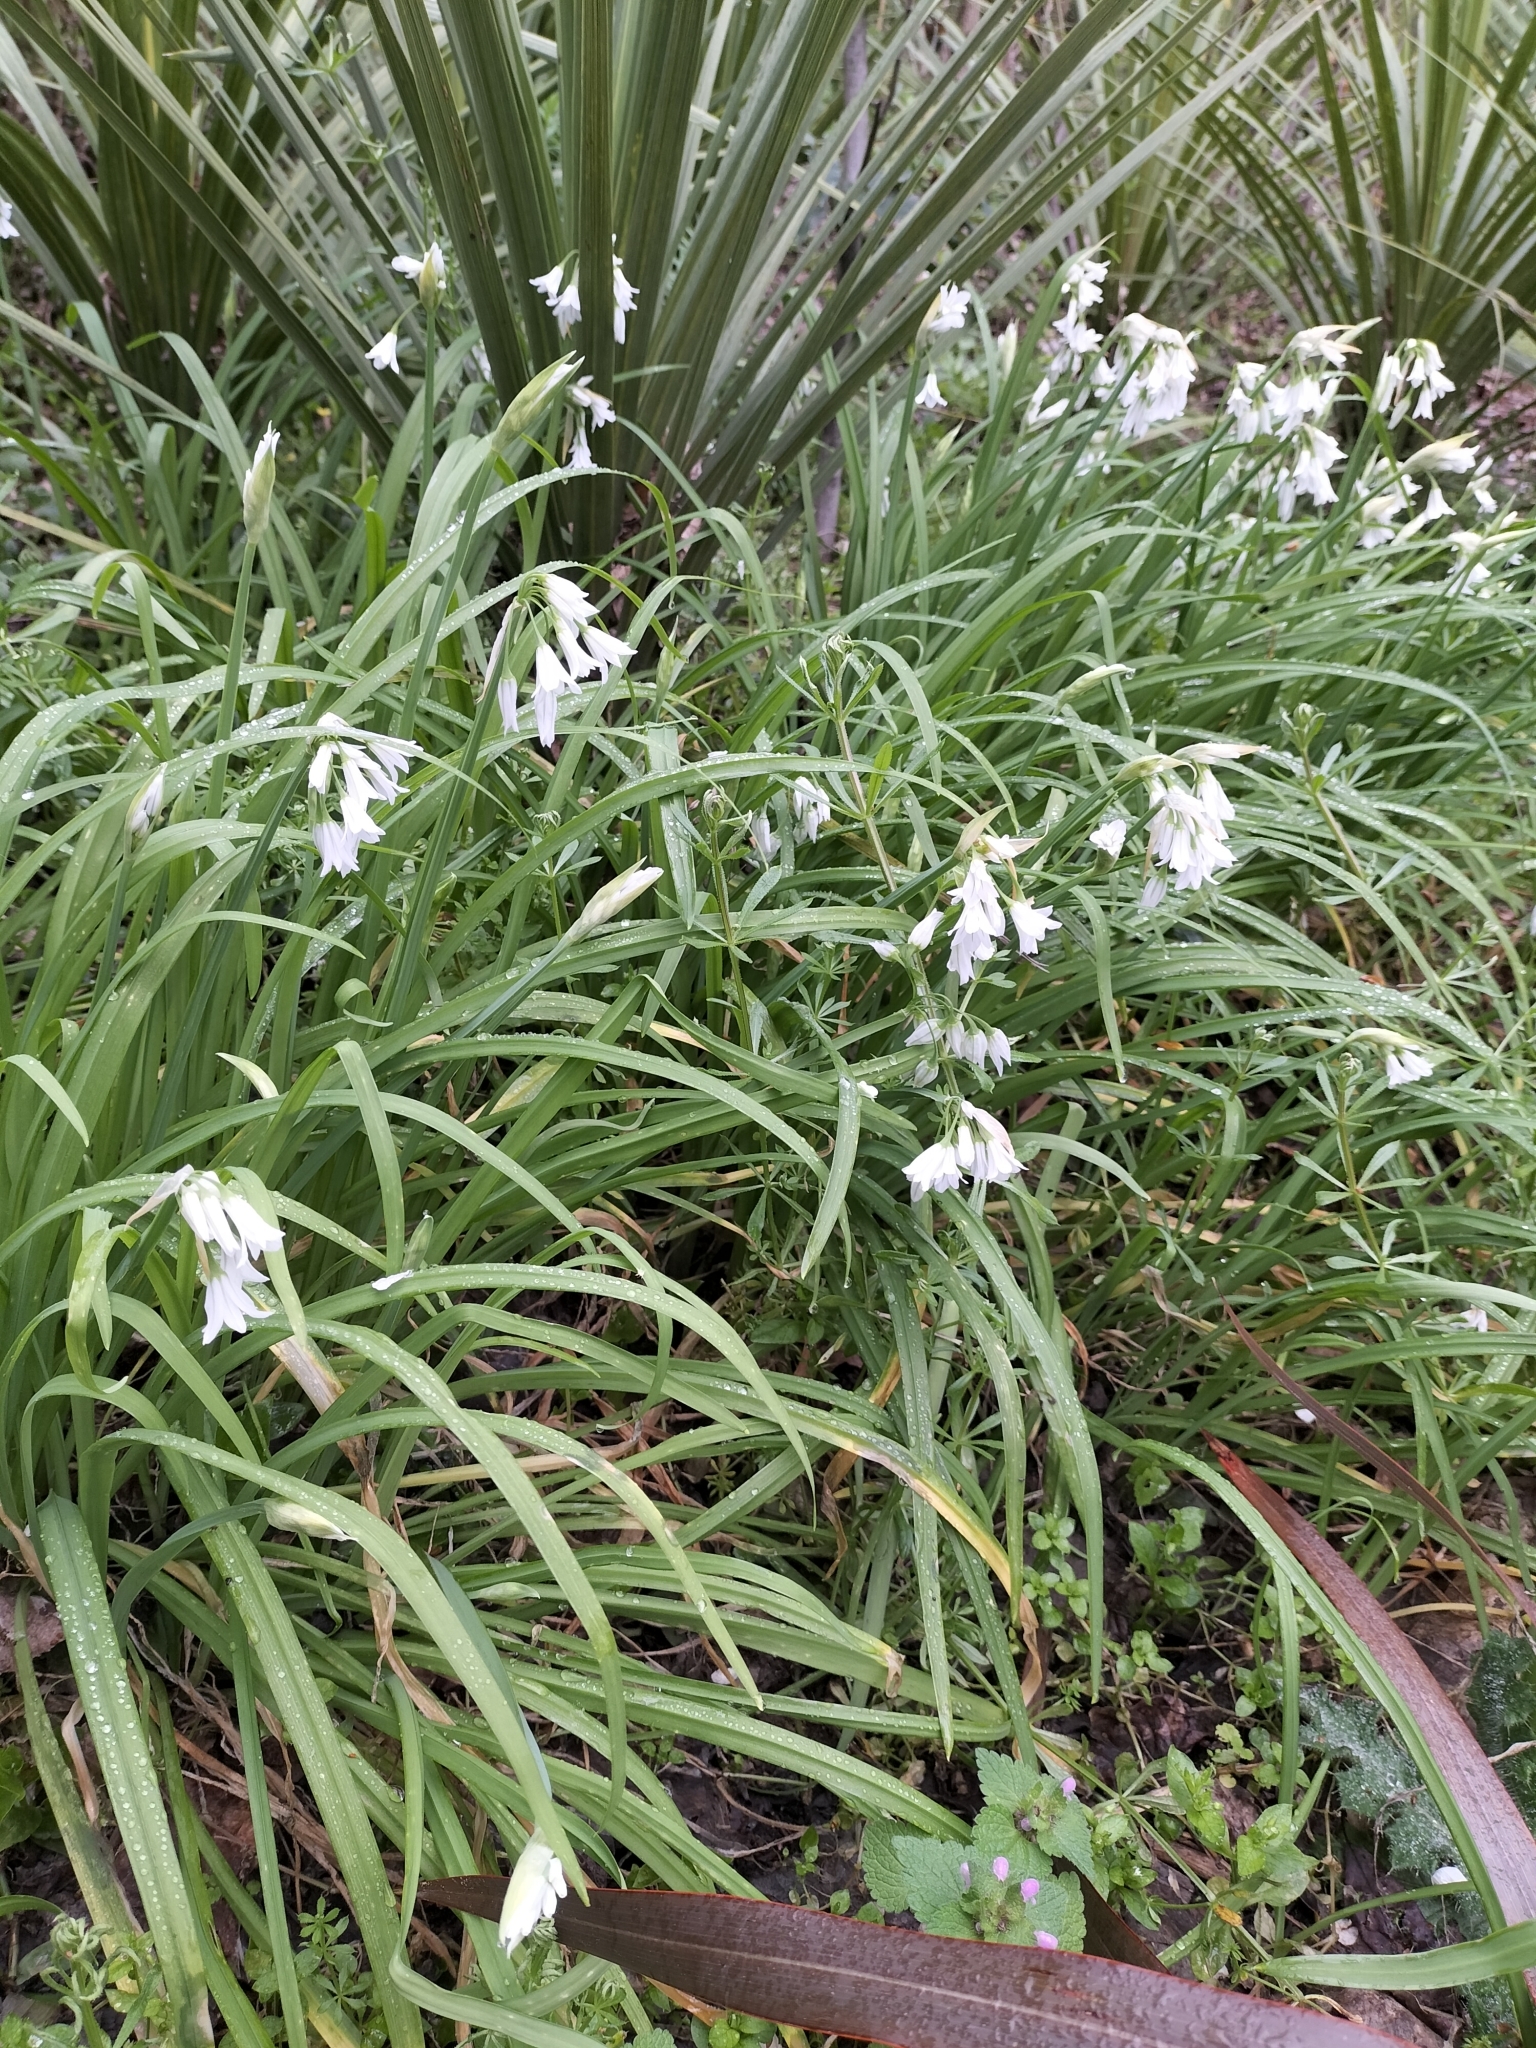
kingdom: Plantae
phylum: Tracheophyta
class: Liliopsida
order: Asparagales
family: Amaryllidaceae
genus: Allium
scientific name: Allium triquetrum
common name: Three-cornered garlic
